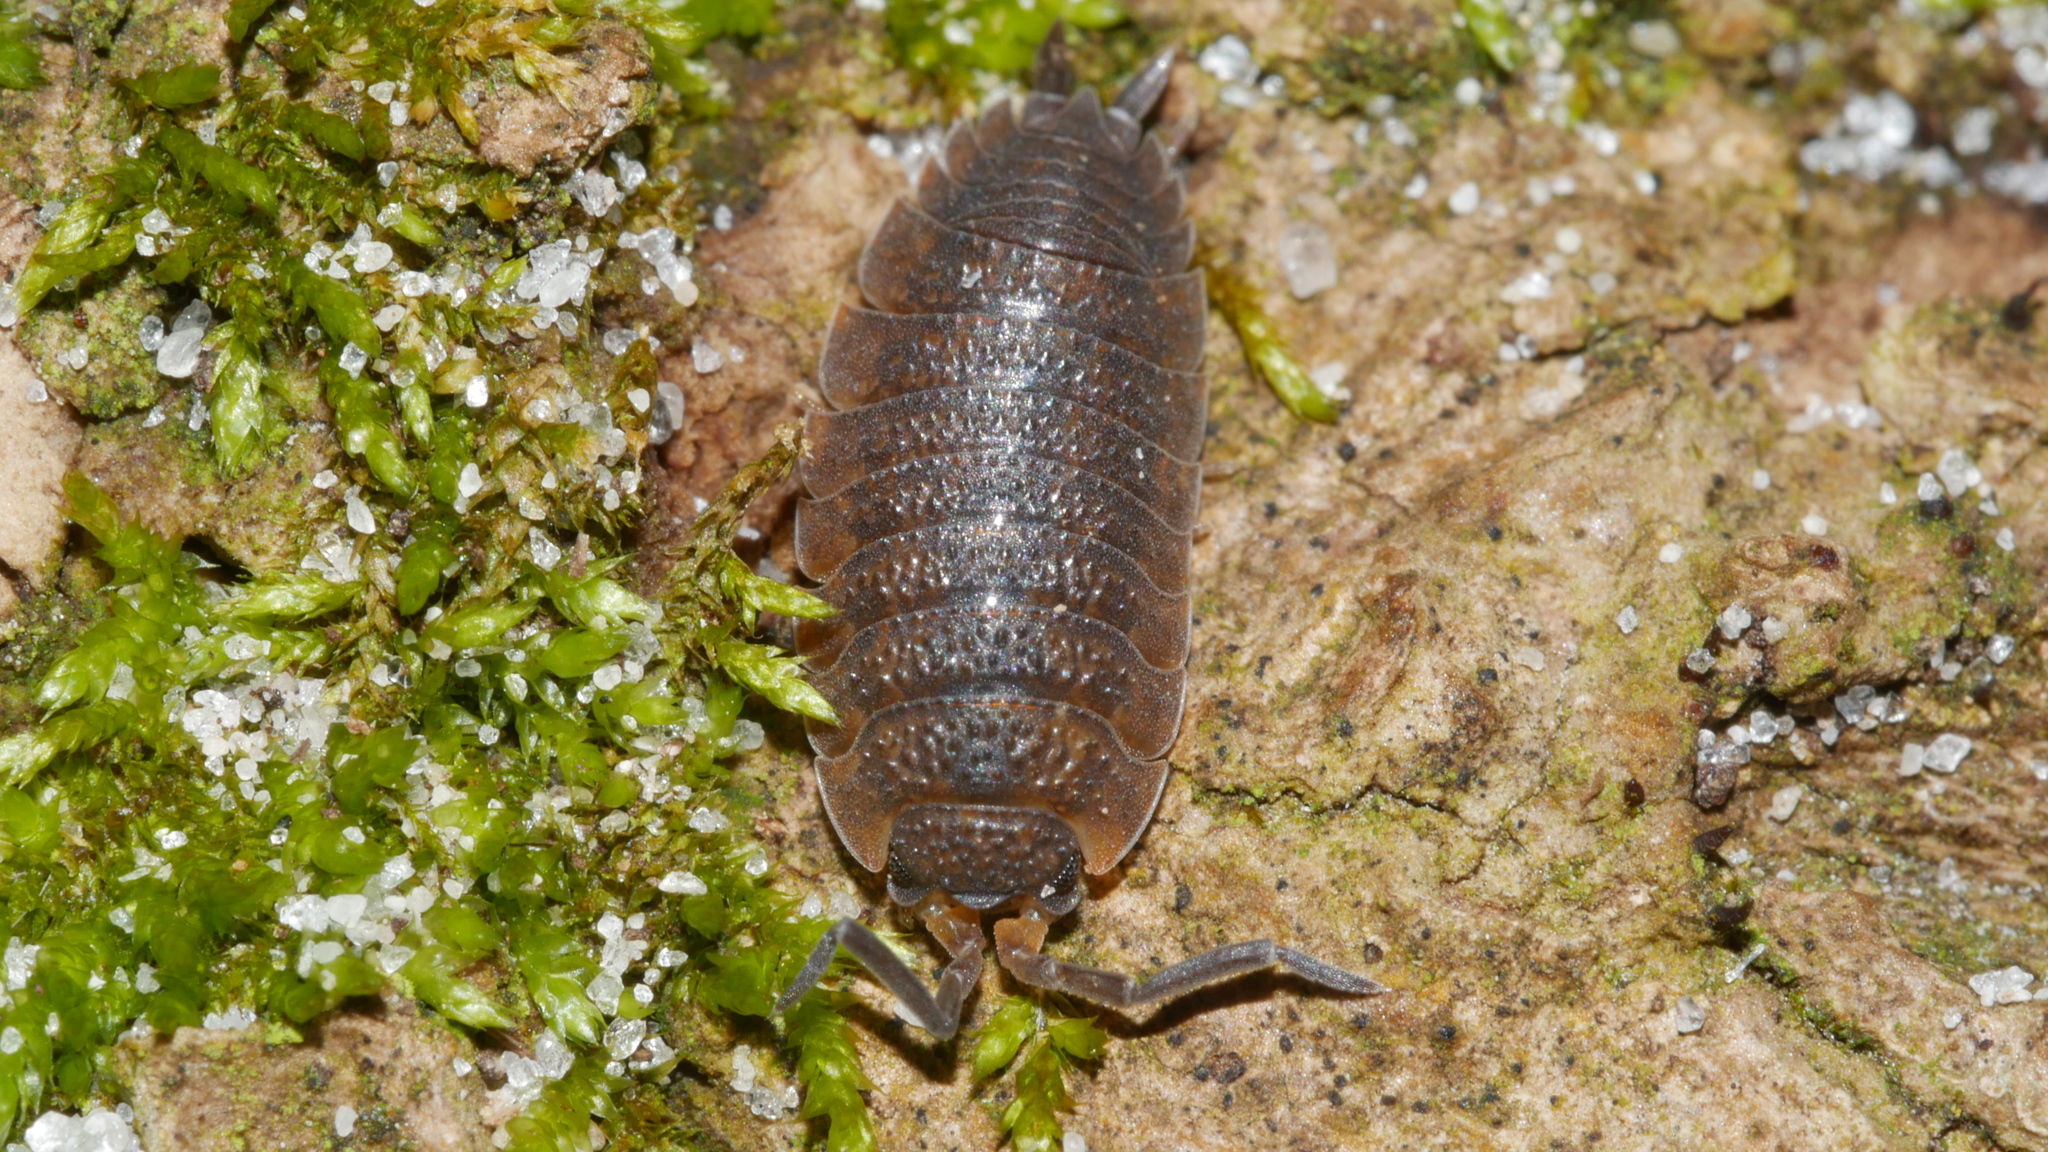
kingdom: Animalia
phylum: Arthropoda
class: Malacostraca
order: Isopoda
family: Porcellionidae
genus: Porcellio
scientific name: Porcellio scaber
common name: Common rough woodlouse
